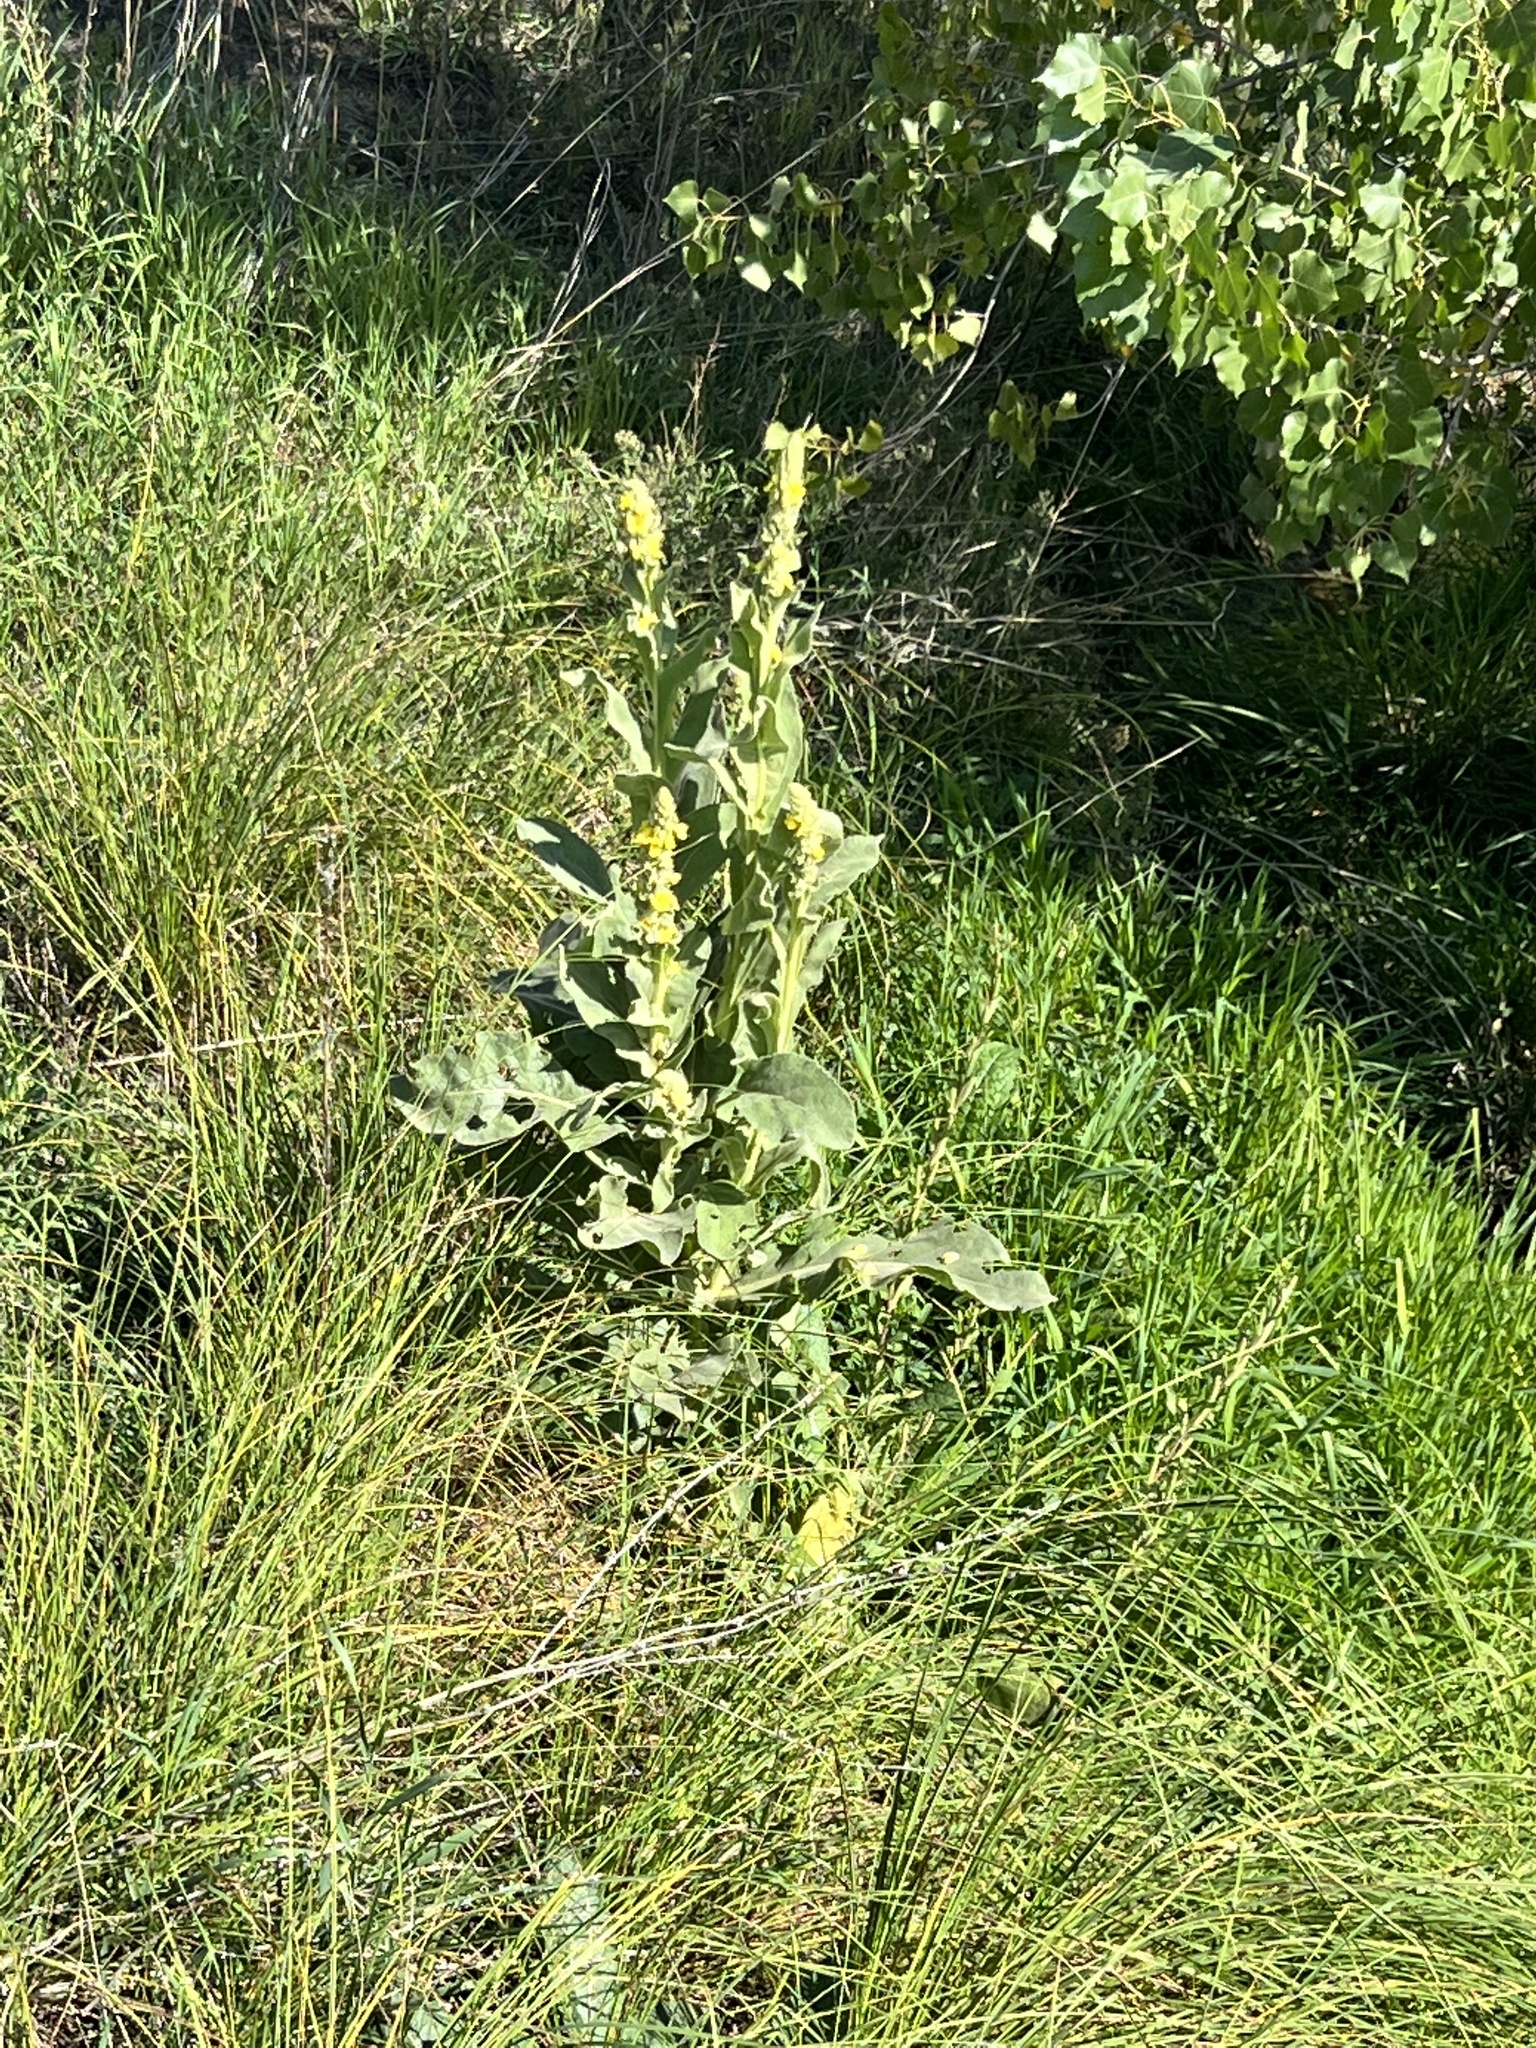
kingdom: Plantae
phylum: Tracheophyta
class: Magnoliopsida
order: Lamiales
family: Scrophulariaceae
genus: Verbascum
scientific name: Verbascum thapsus
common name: Common mullein
